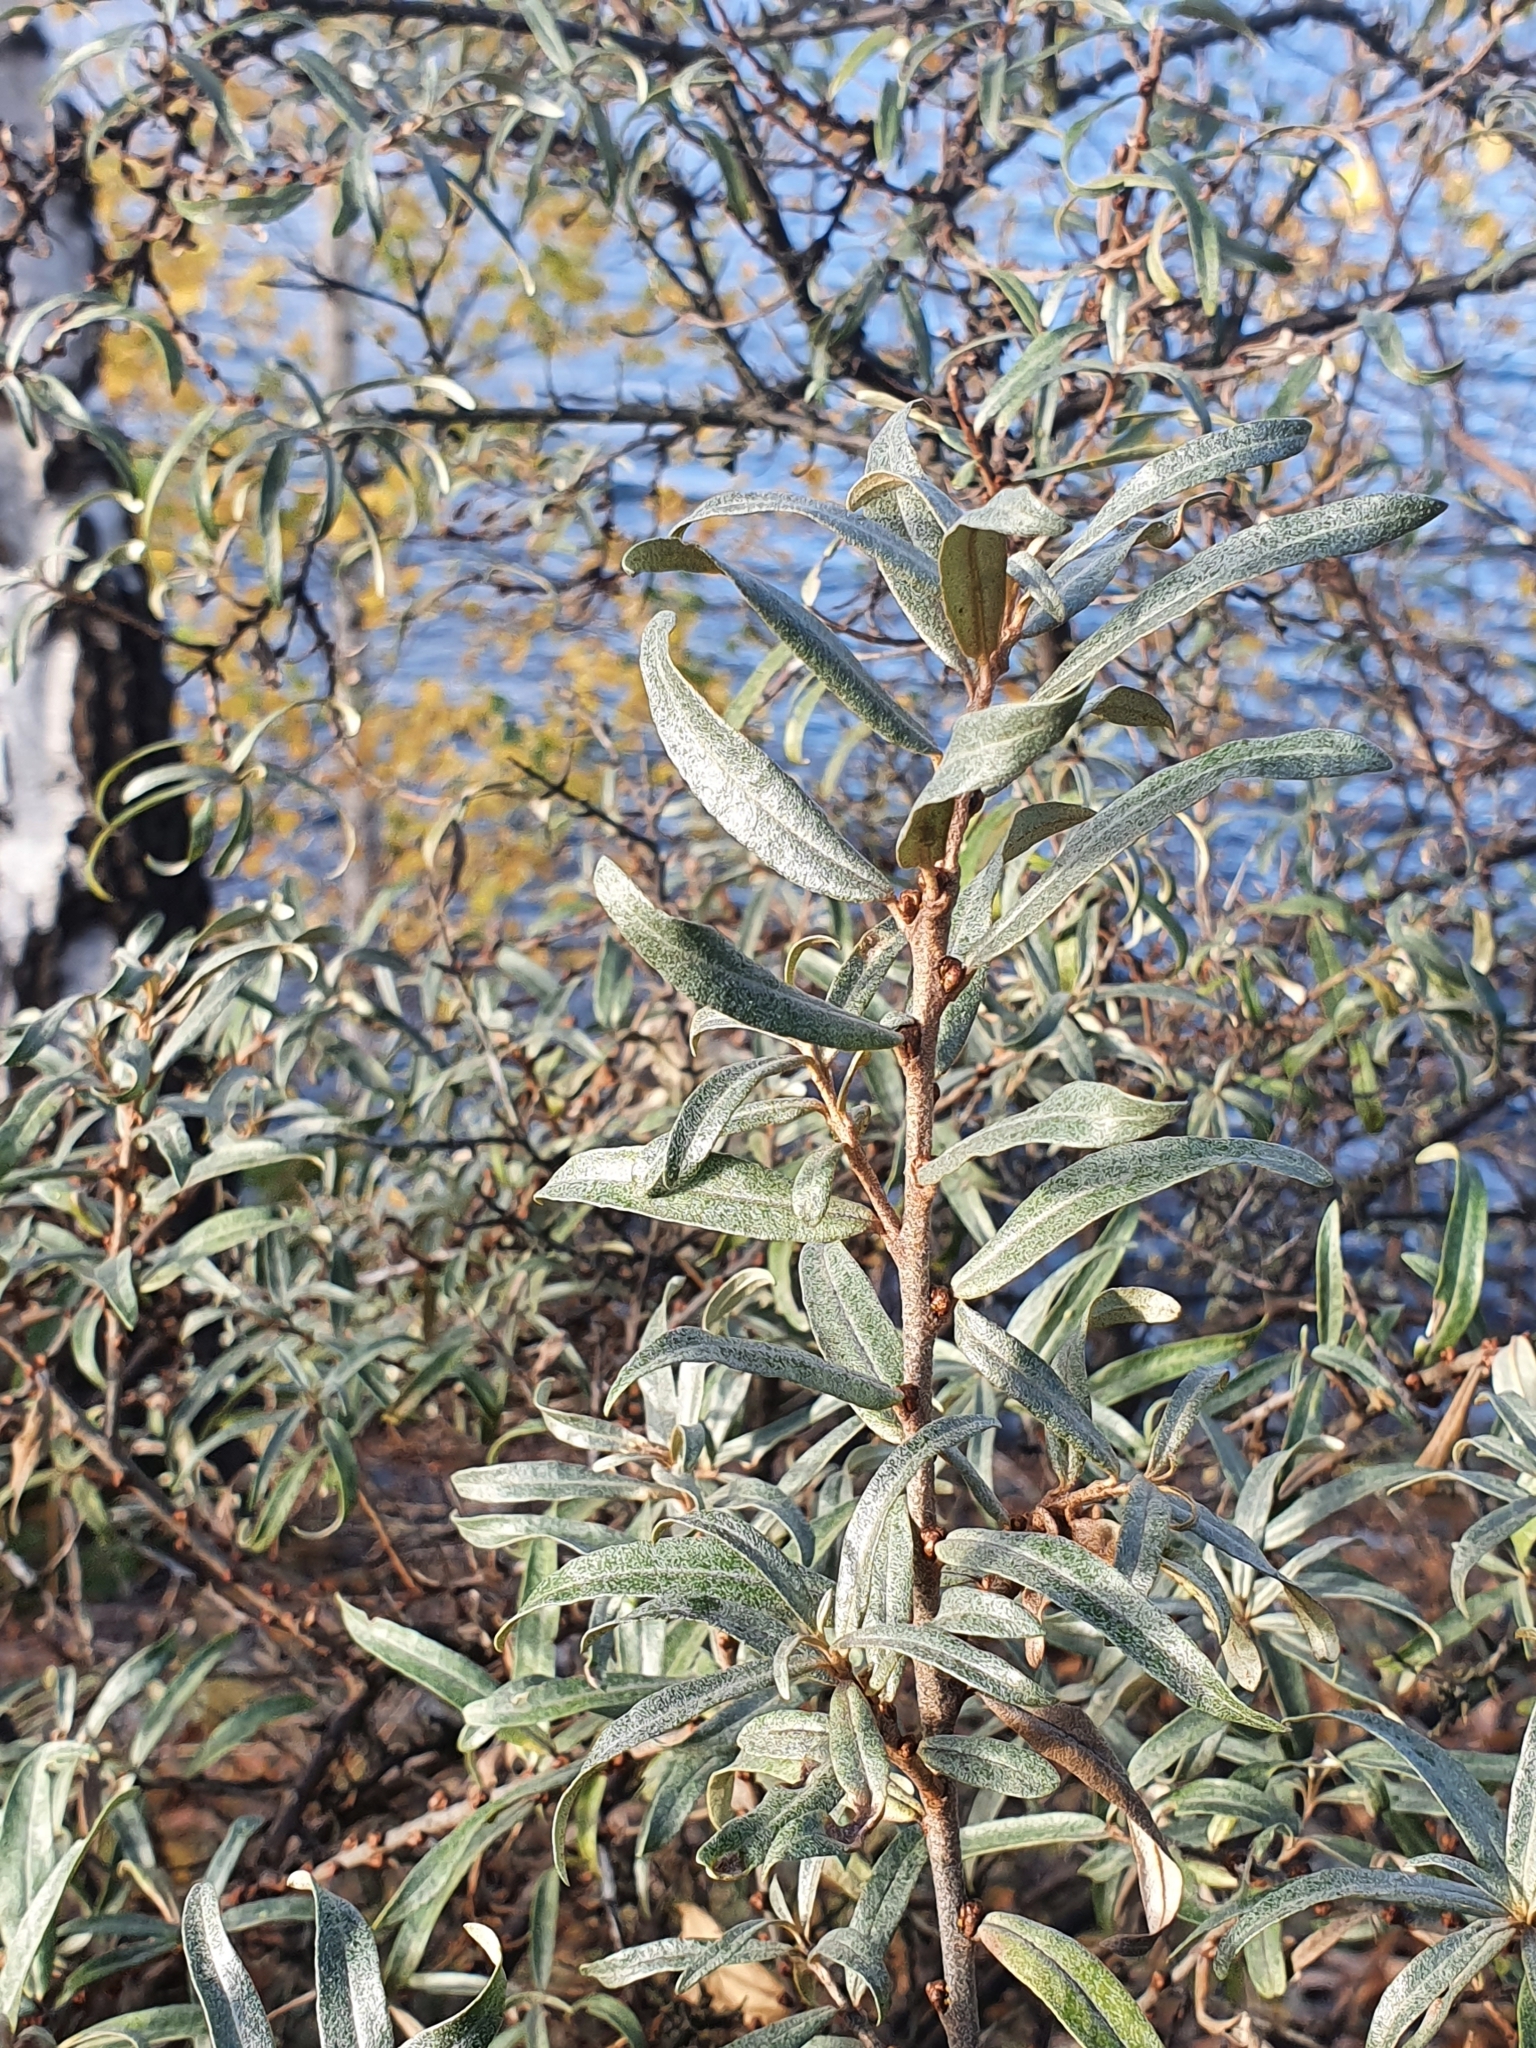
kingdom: Plantae
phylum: Tracheophyta
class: Magnoliopsida
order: Rosales
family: Elaeagnaceae
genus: Hippophae
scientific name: Hippophae rhamnoides
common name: Sea-buckthorn
